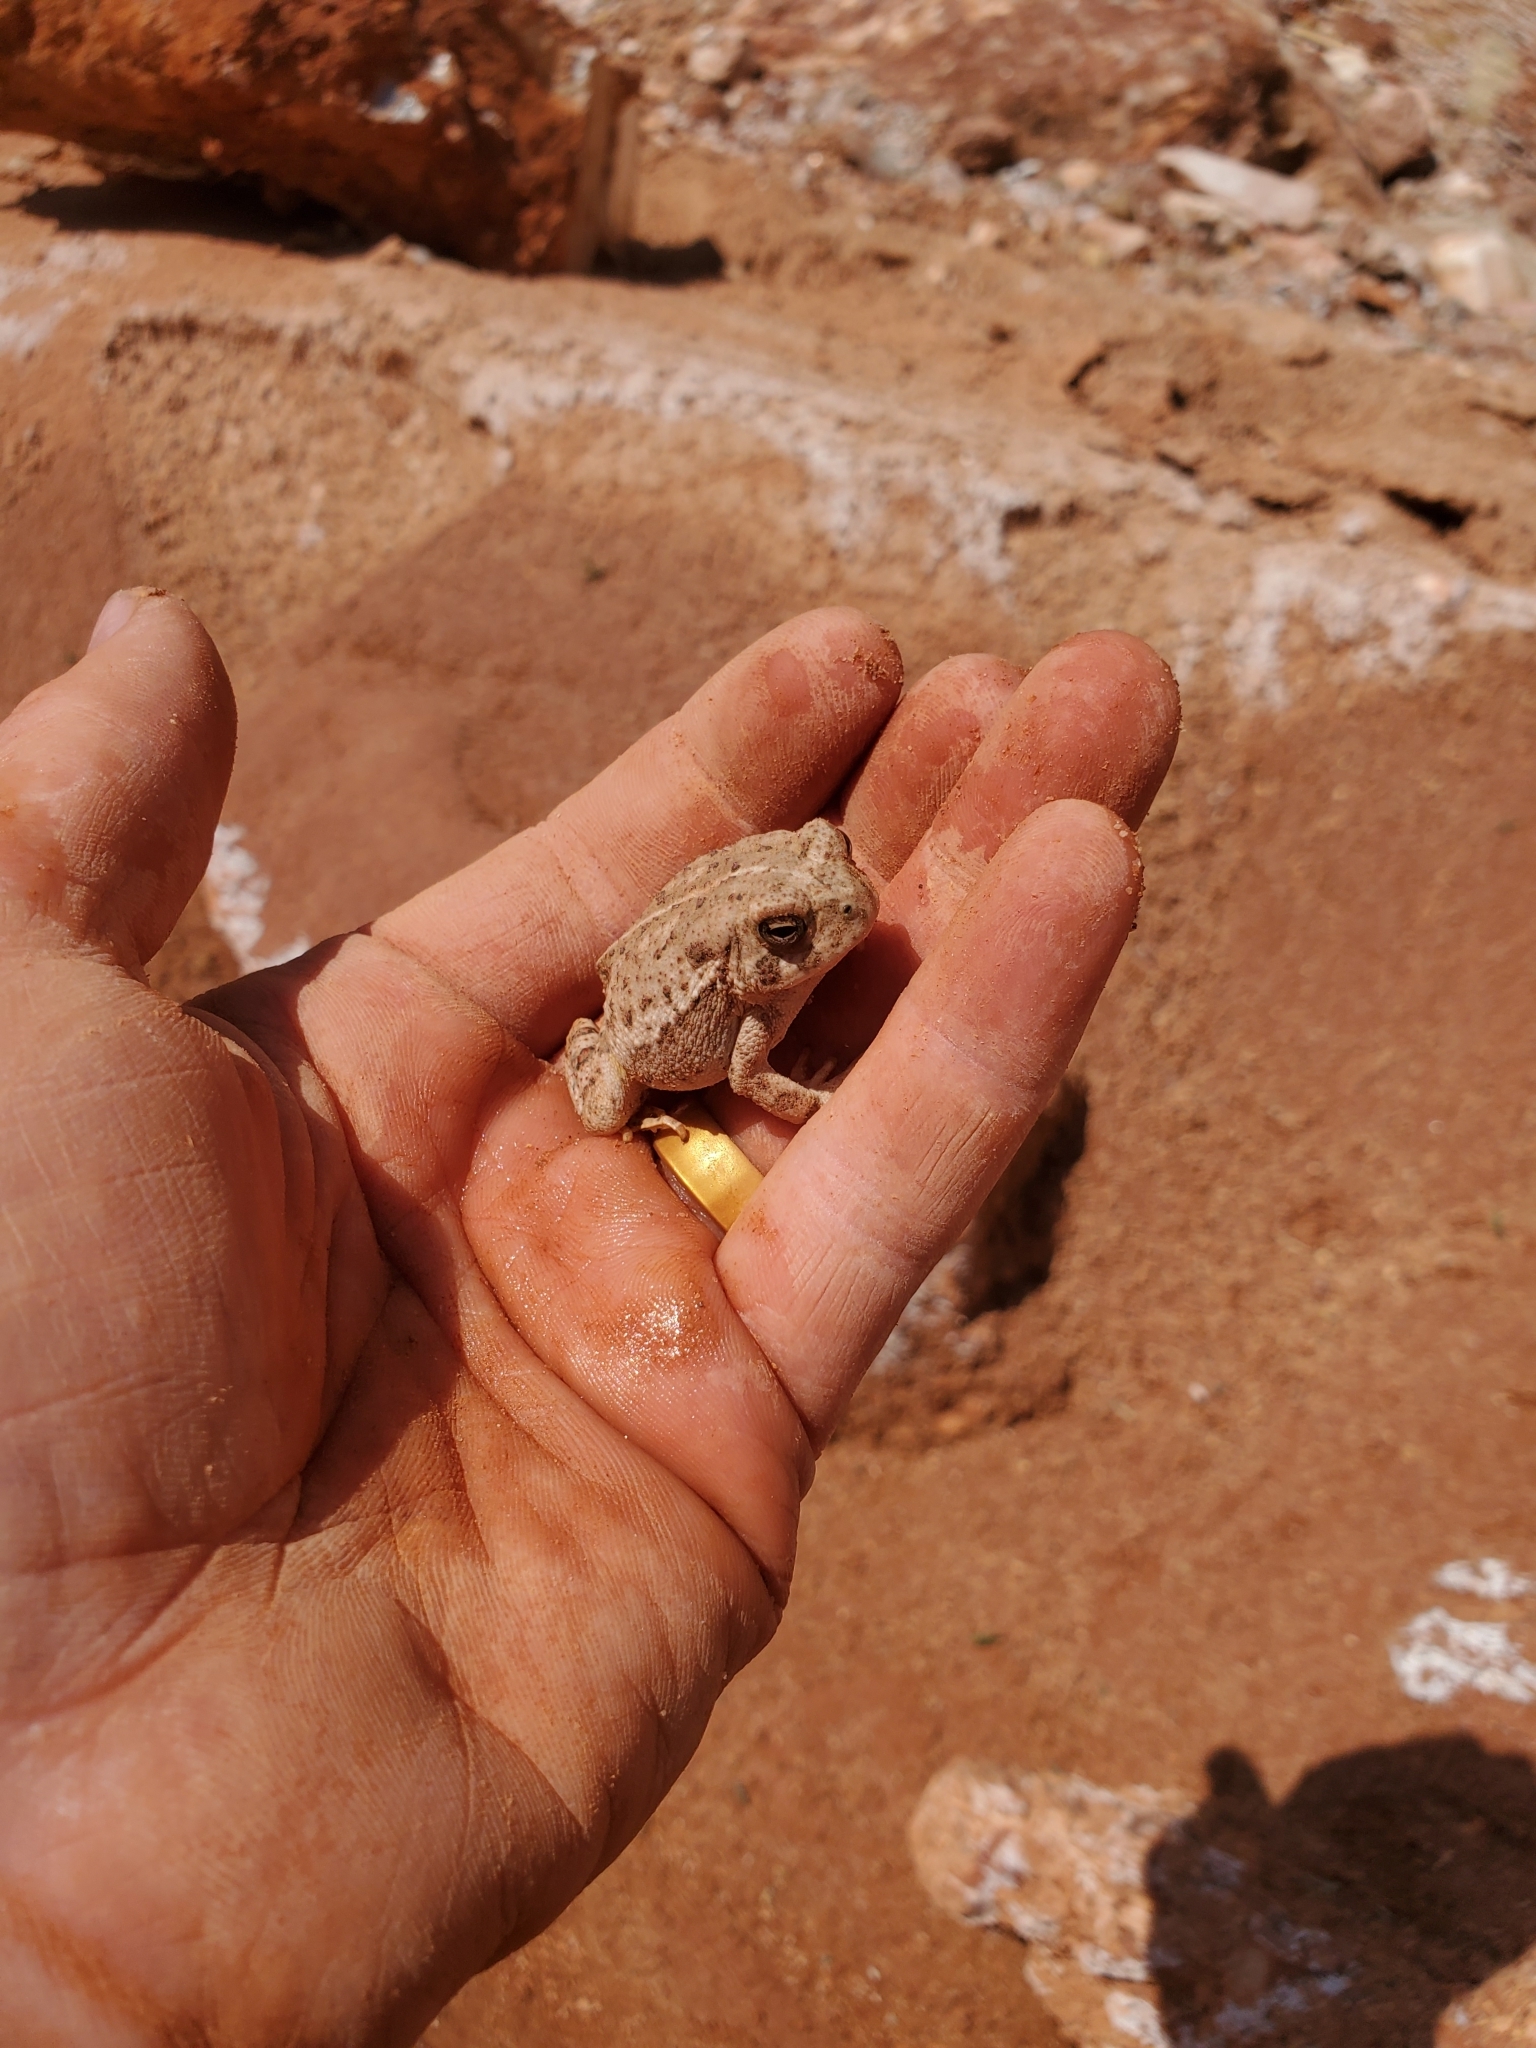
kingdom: Animalia
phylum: Chordata
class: Amphibia
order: Anura
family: Bufonidae
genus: Anaxyrus
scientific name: Anaxyrus woodhousii
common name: Woodhouse's toad
